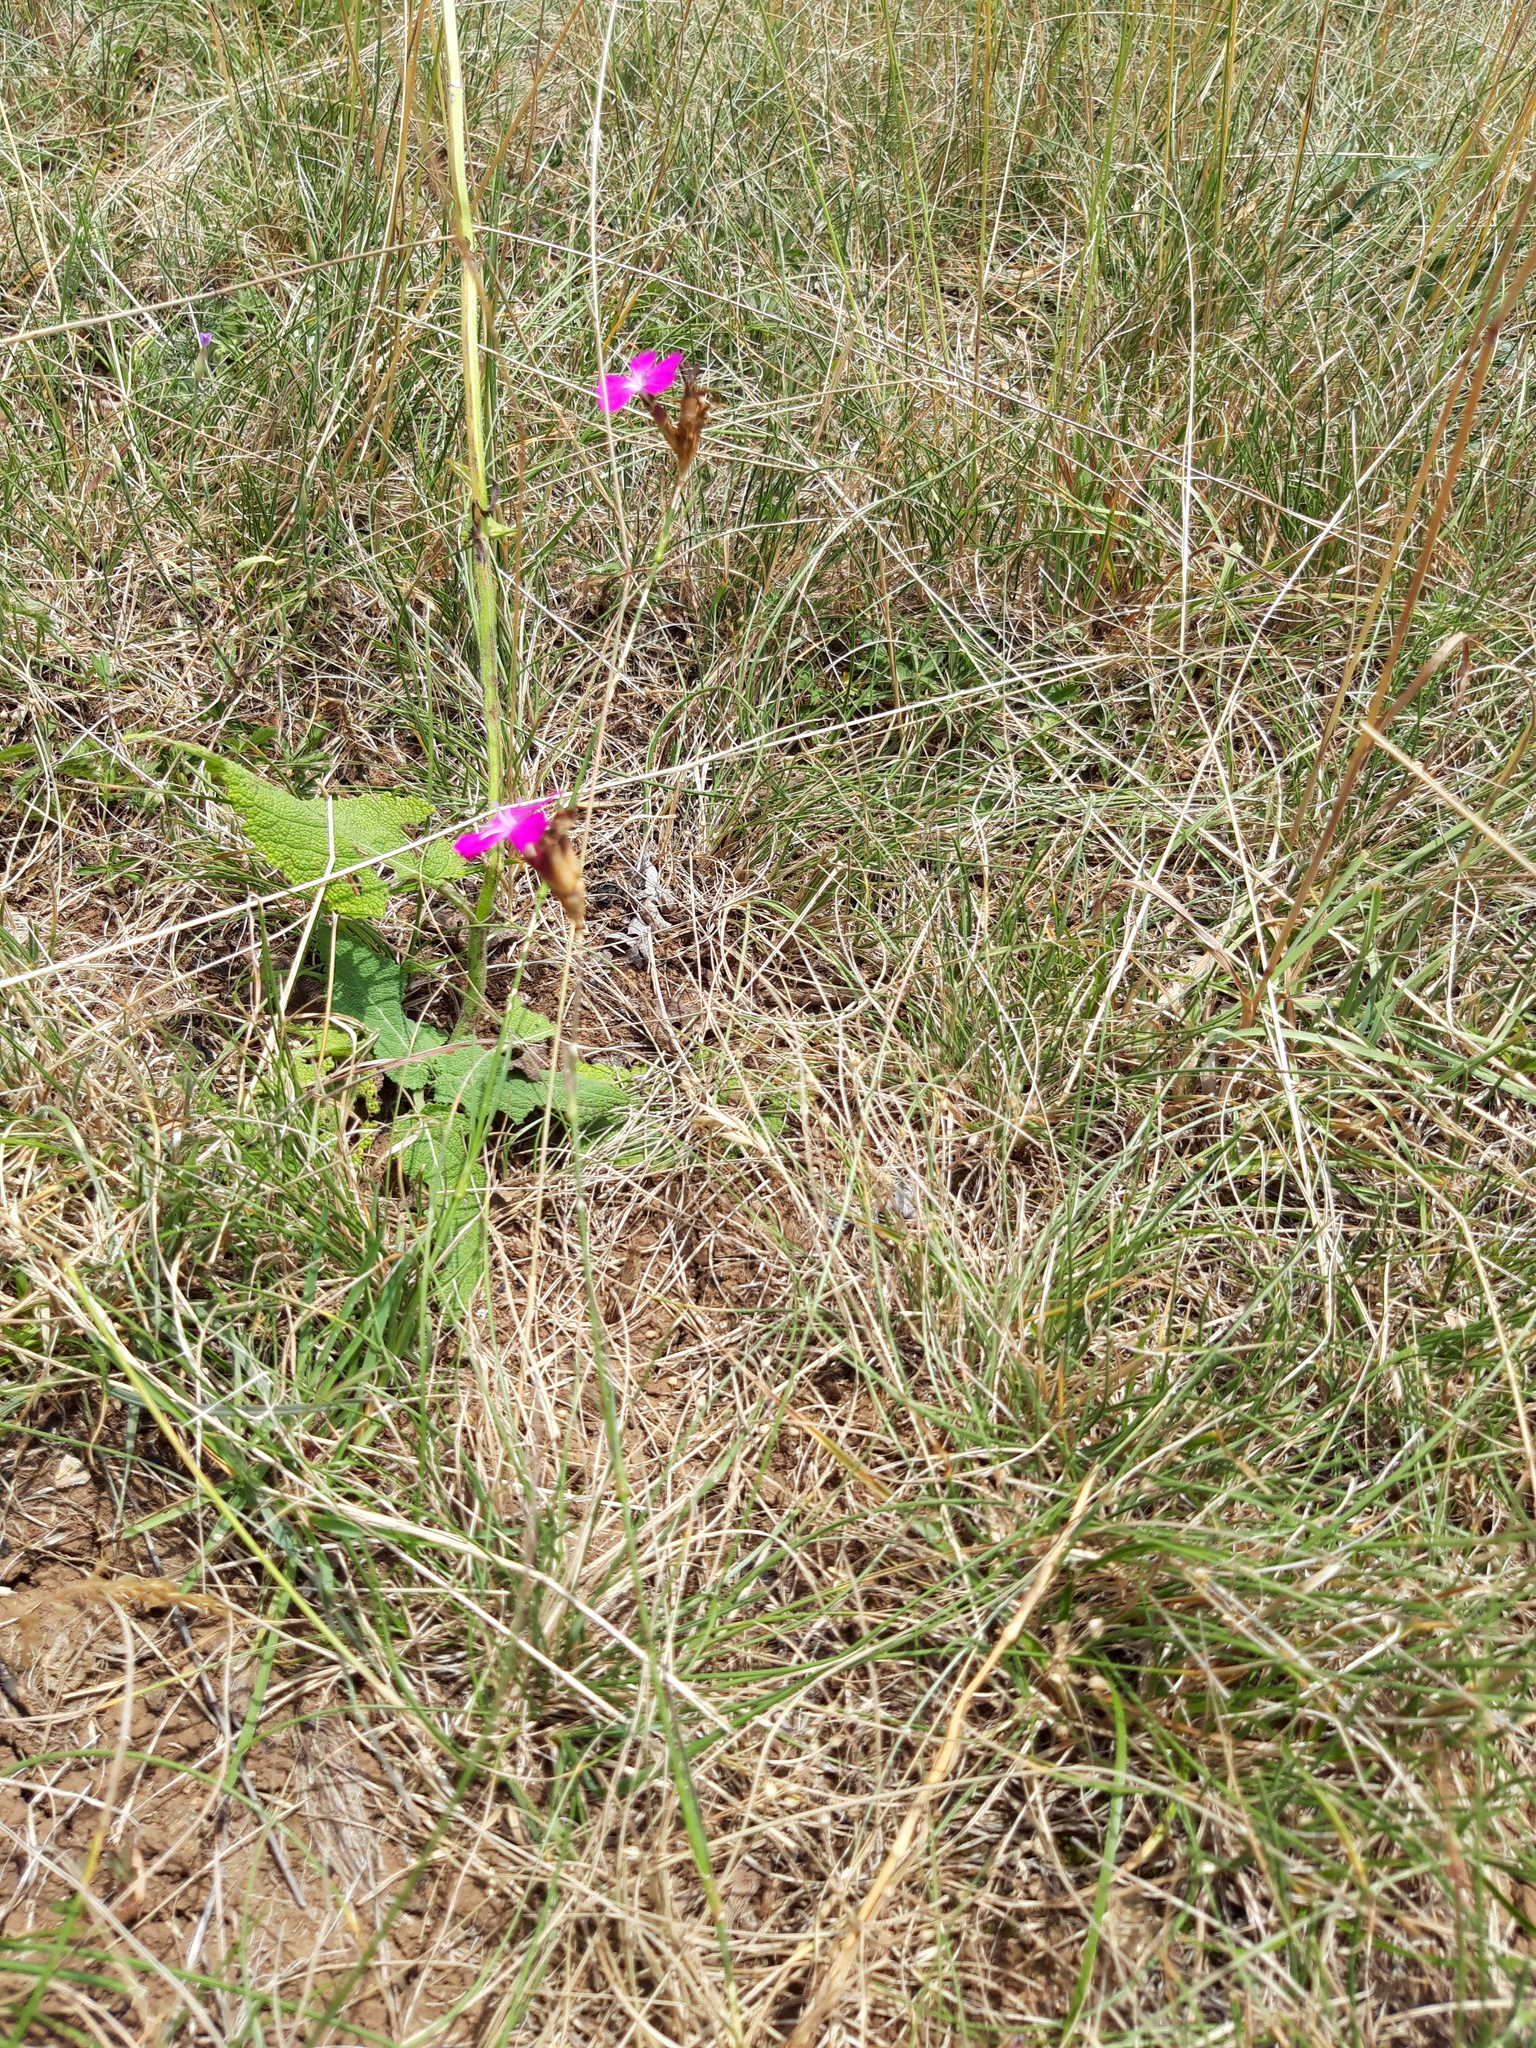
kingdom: Plantae
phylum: Tracheophyta
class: Magnoliopsida
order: Caryophyllales
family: Caryophyllaceae
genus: Dianthus
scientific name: Dianthus carthusianorum
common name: Carthusian pink
